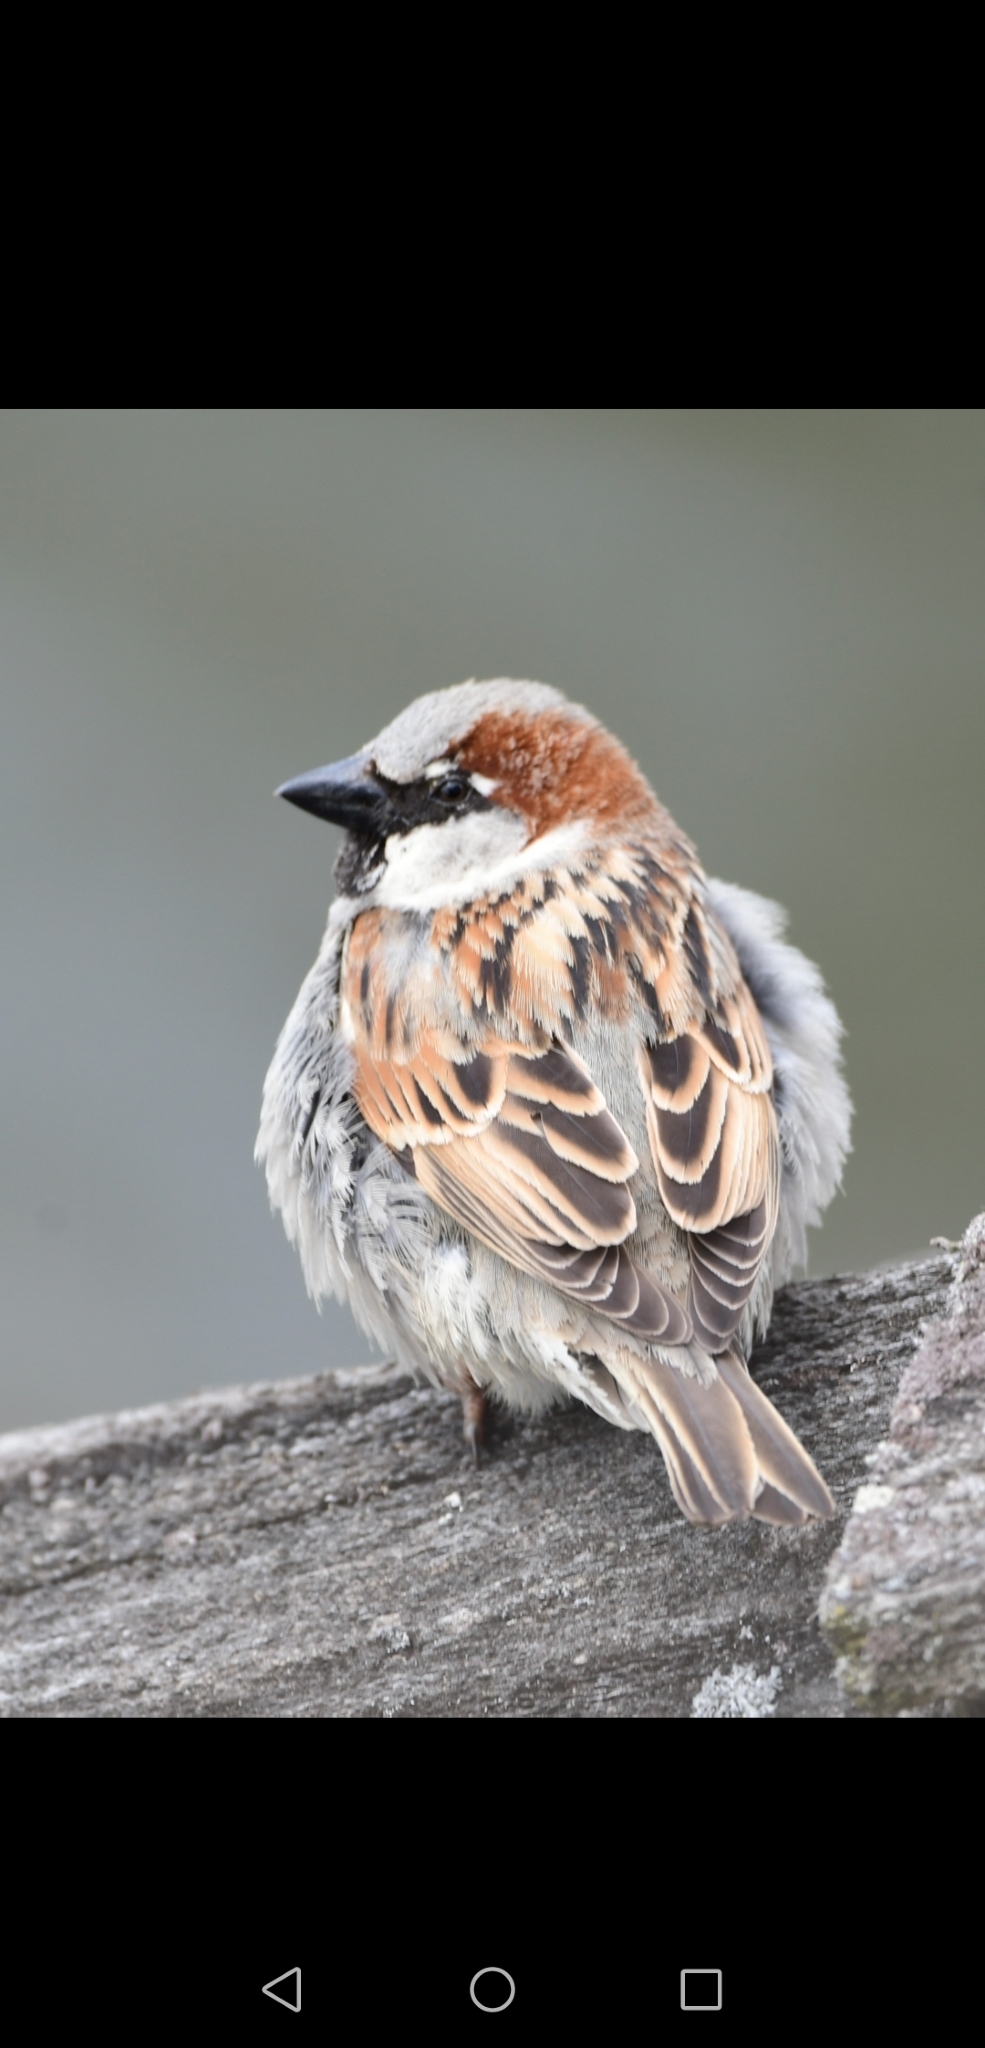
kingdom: Animalia
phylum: Chordata
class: Aves
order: Passeriformes
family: Passeridae
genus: Passer
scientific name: Passer domesticus
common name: House sparrow
